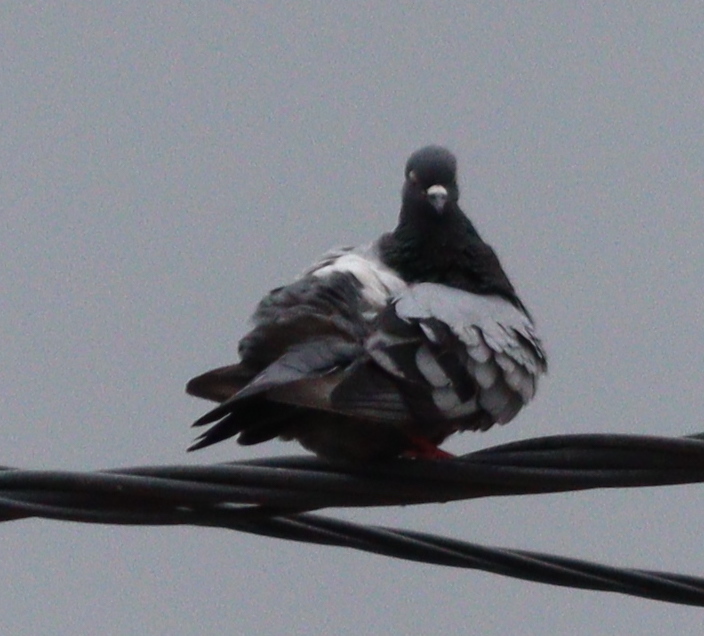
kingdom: Animalia
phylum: Chordata
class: Aves
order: Columbiformes
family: Columbidae
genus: Columba
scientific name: Columba livia
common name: Rock pigeon
